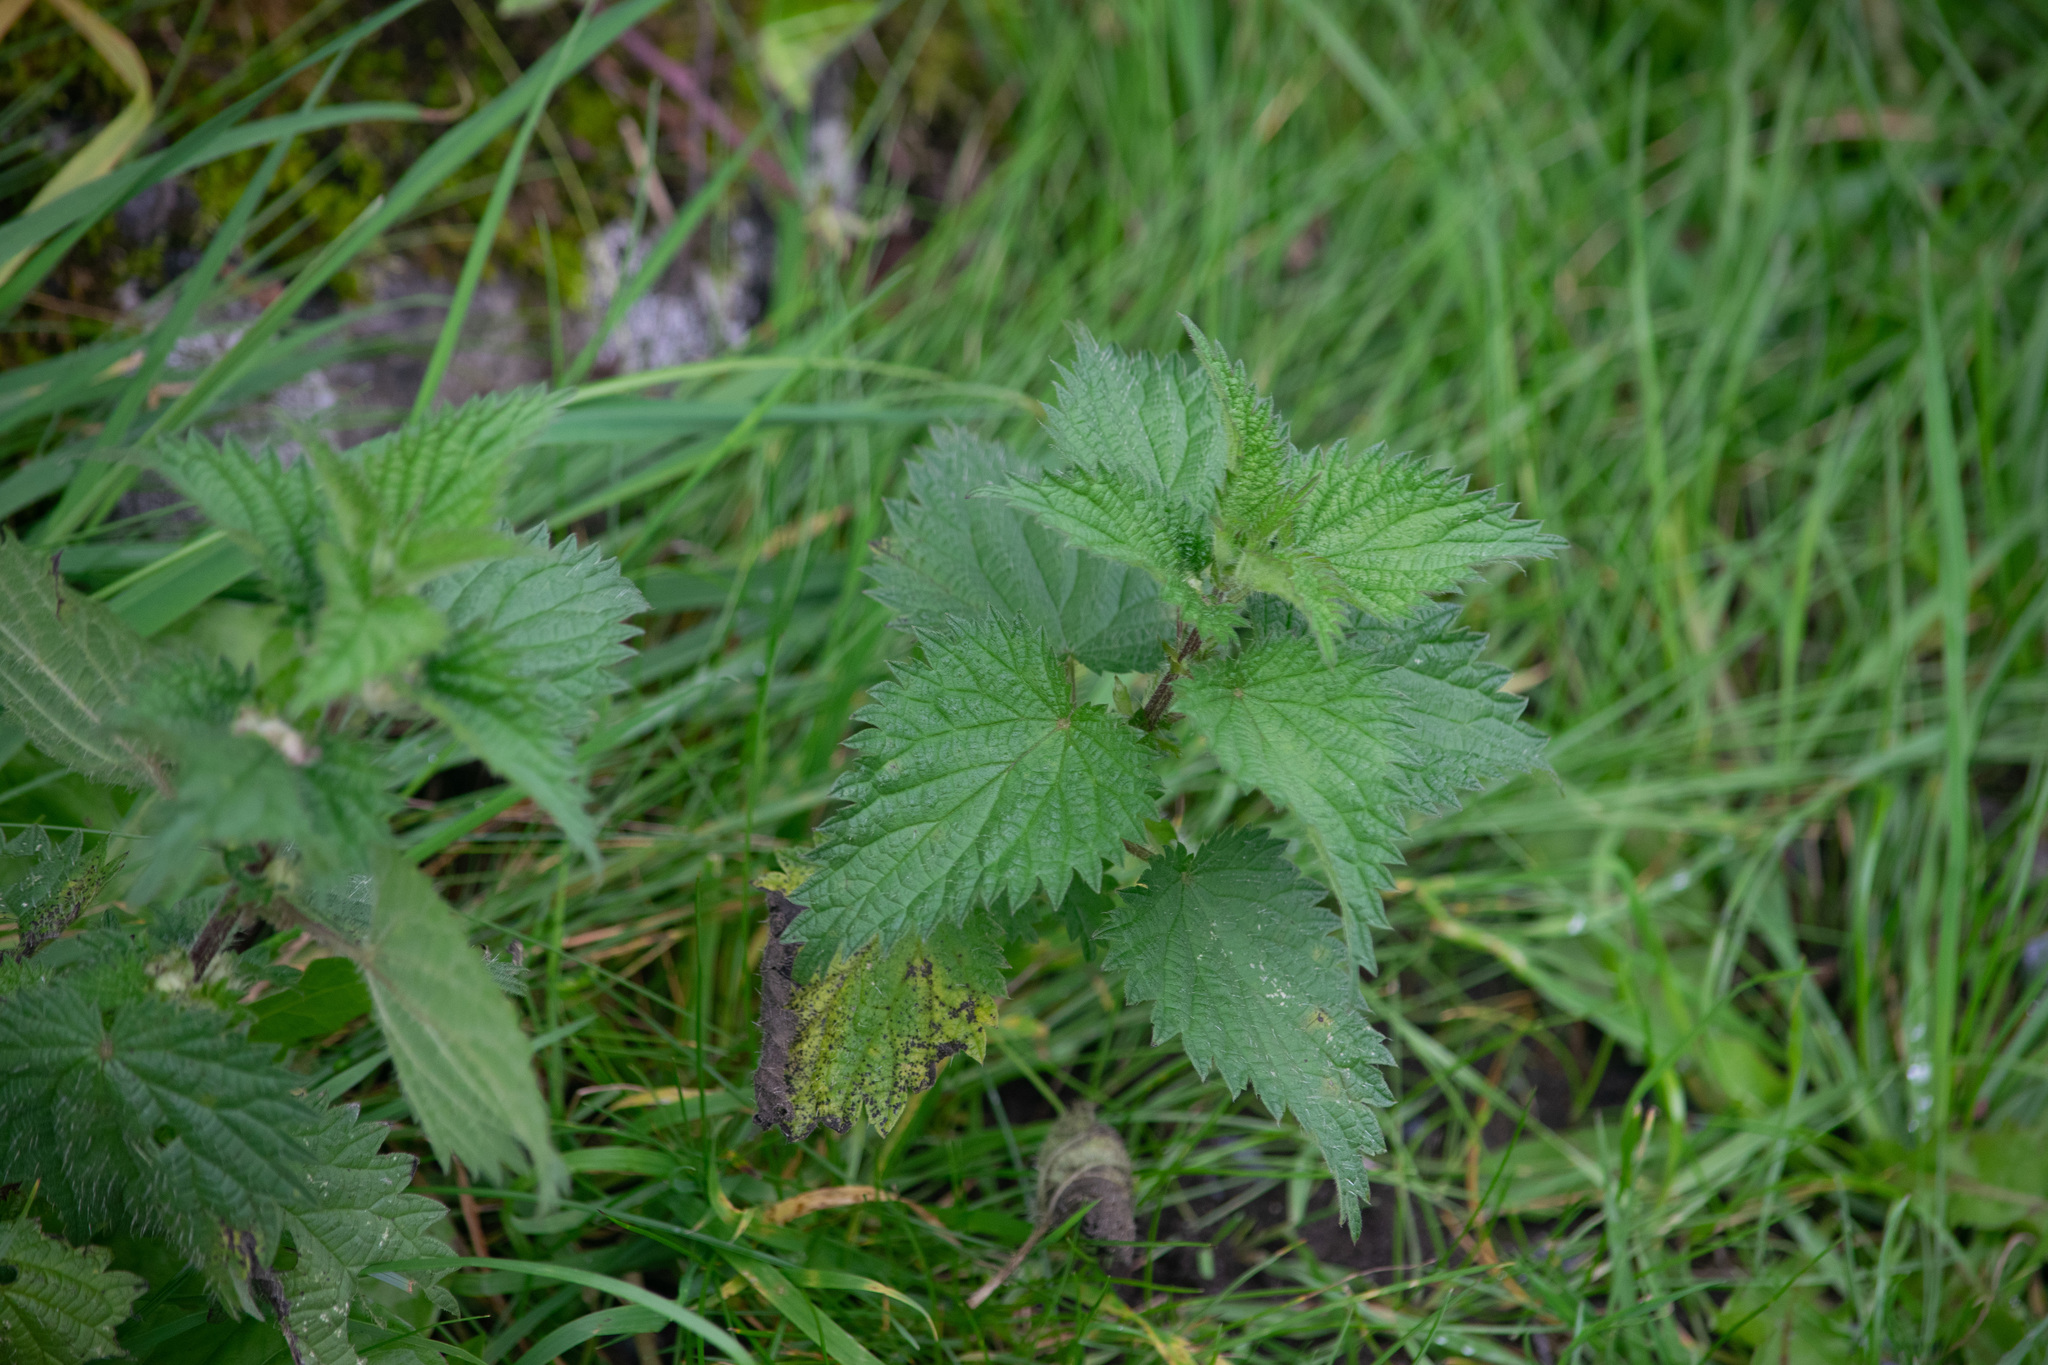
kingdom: Plantae
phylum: Tracheophyta
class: Magnoliopsida
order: Rosales
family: Urticaceae
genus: Urtica
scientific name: Urtica dioica
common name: Common nettle
